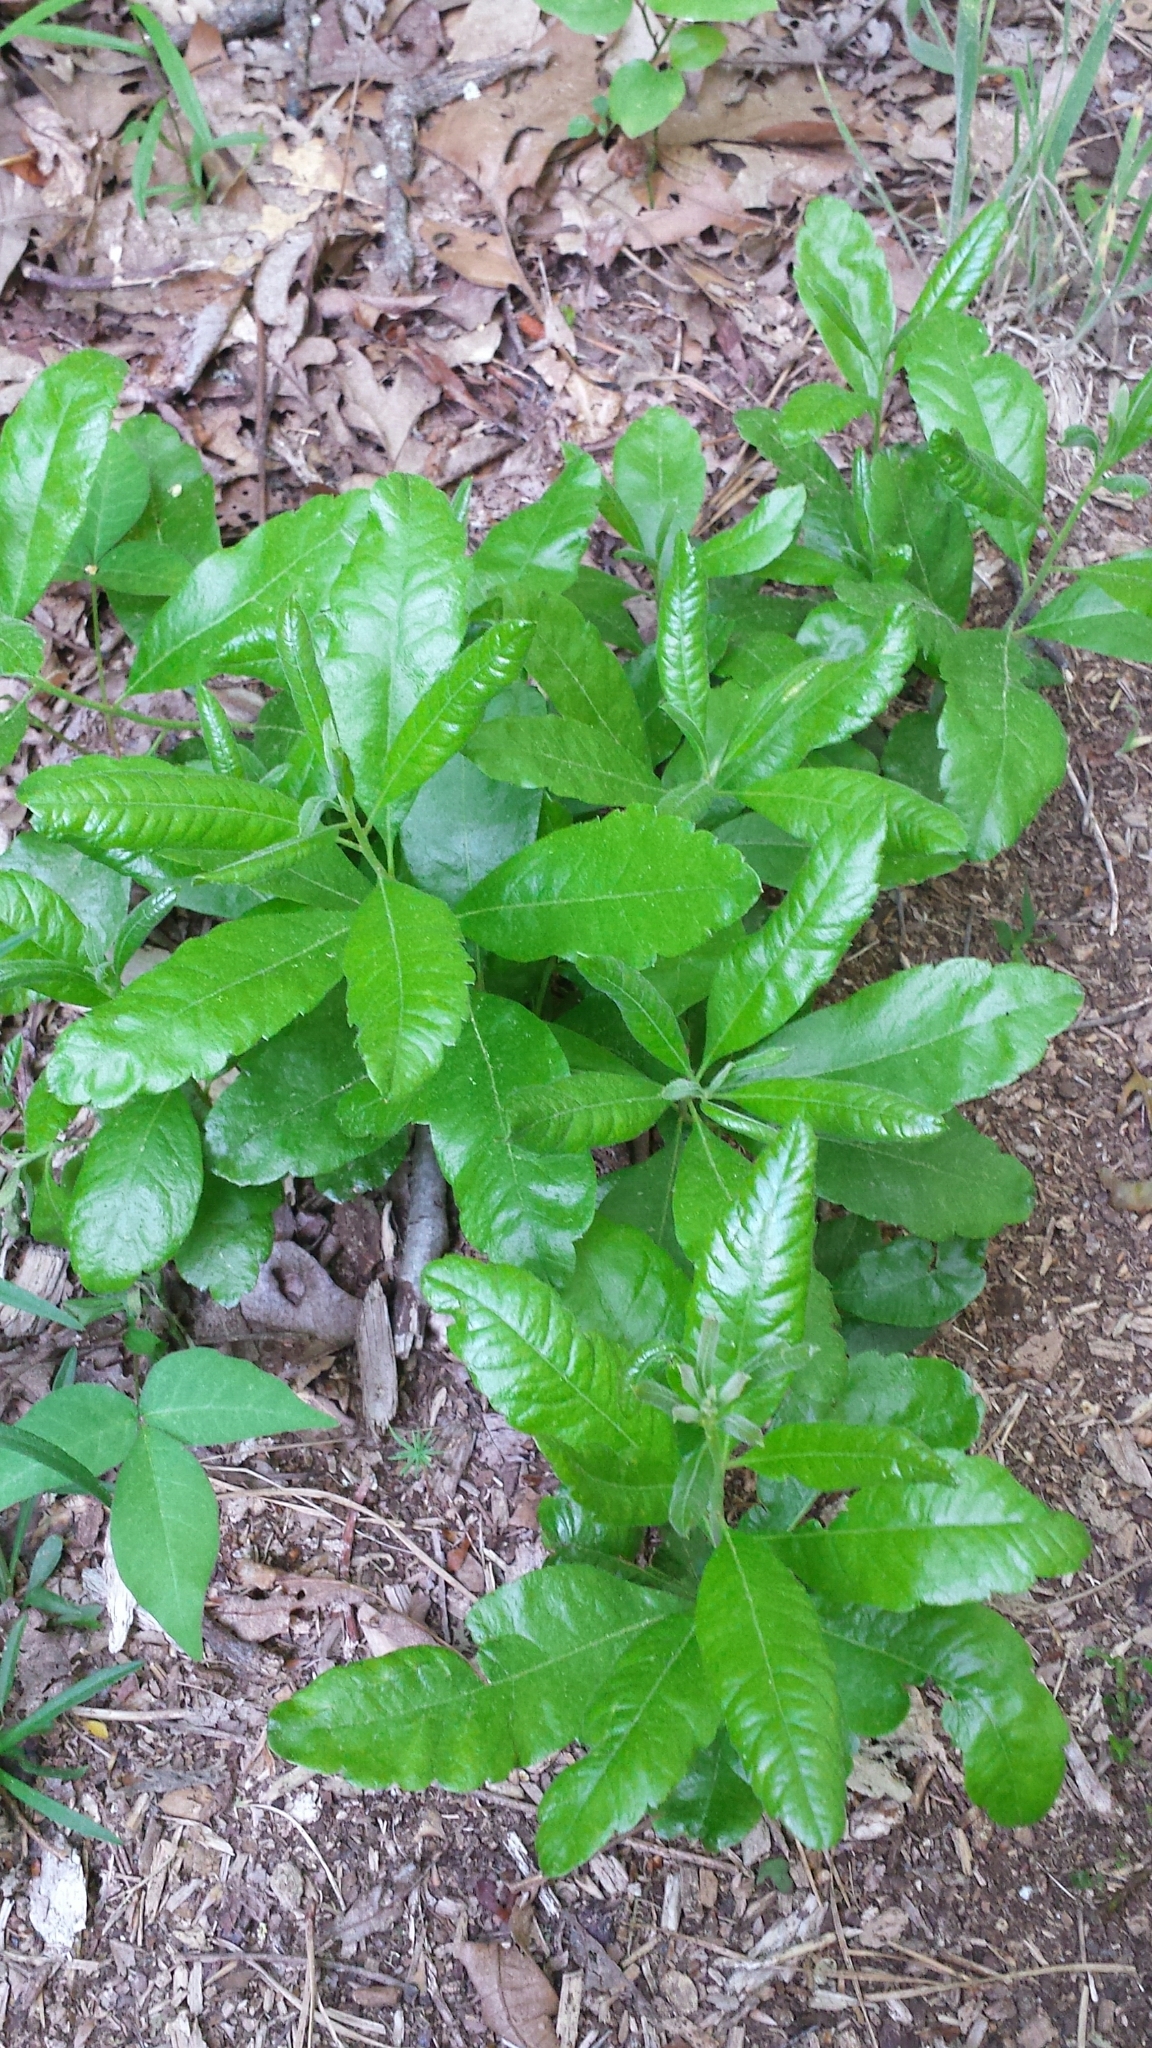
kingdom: Plantae
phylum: Tracheophyta
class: Magnoliopsida
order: Fagales
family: Myricaceae
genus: Morella
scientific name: Morella pensylvanica
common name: Northern bayberry
